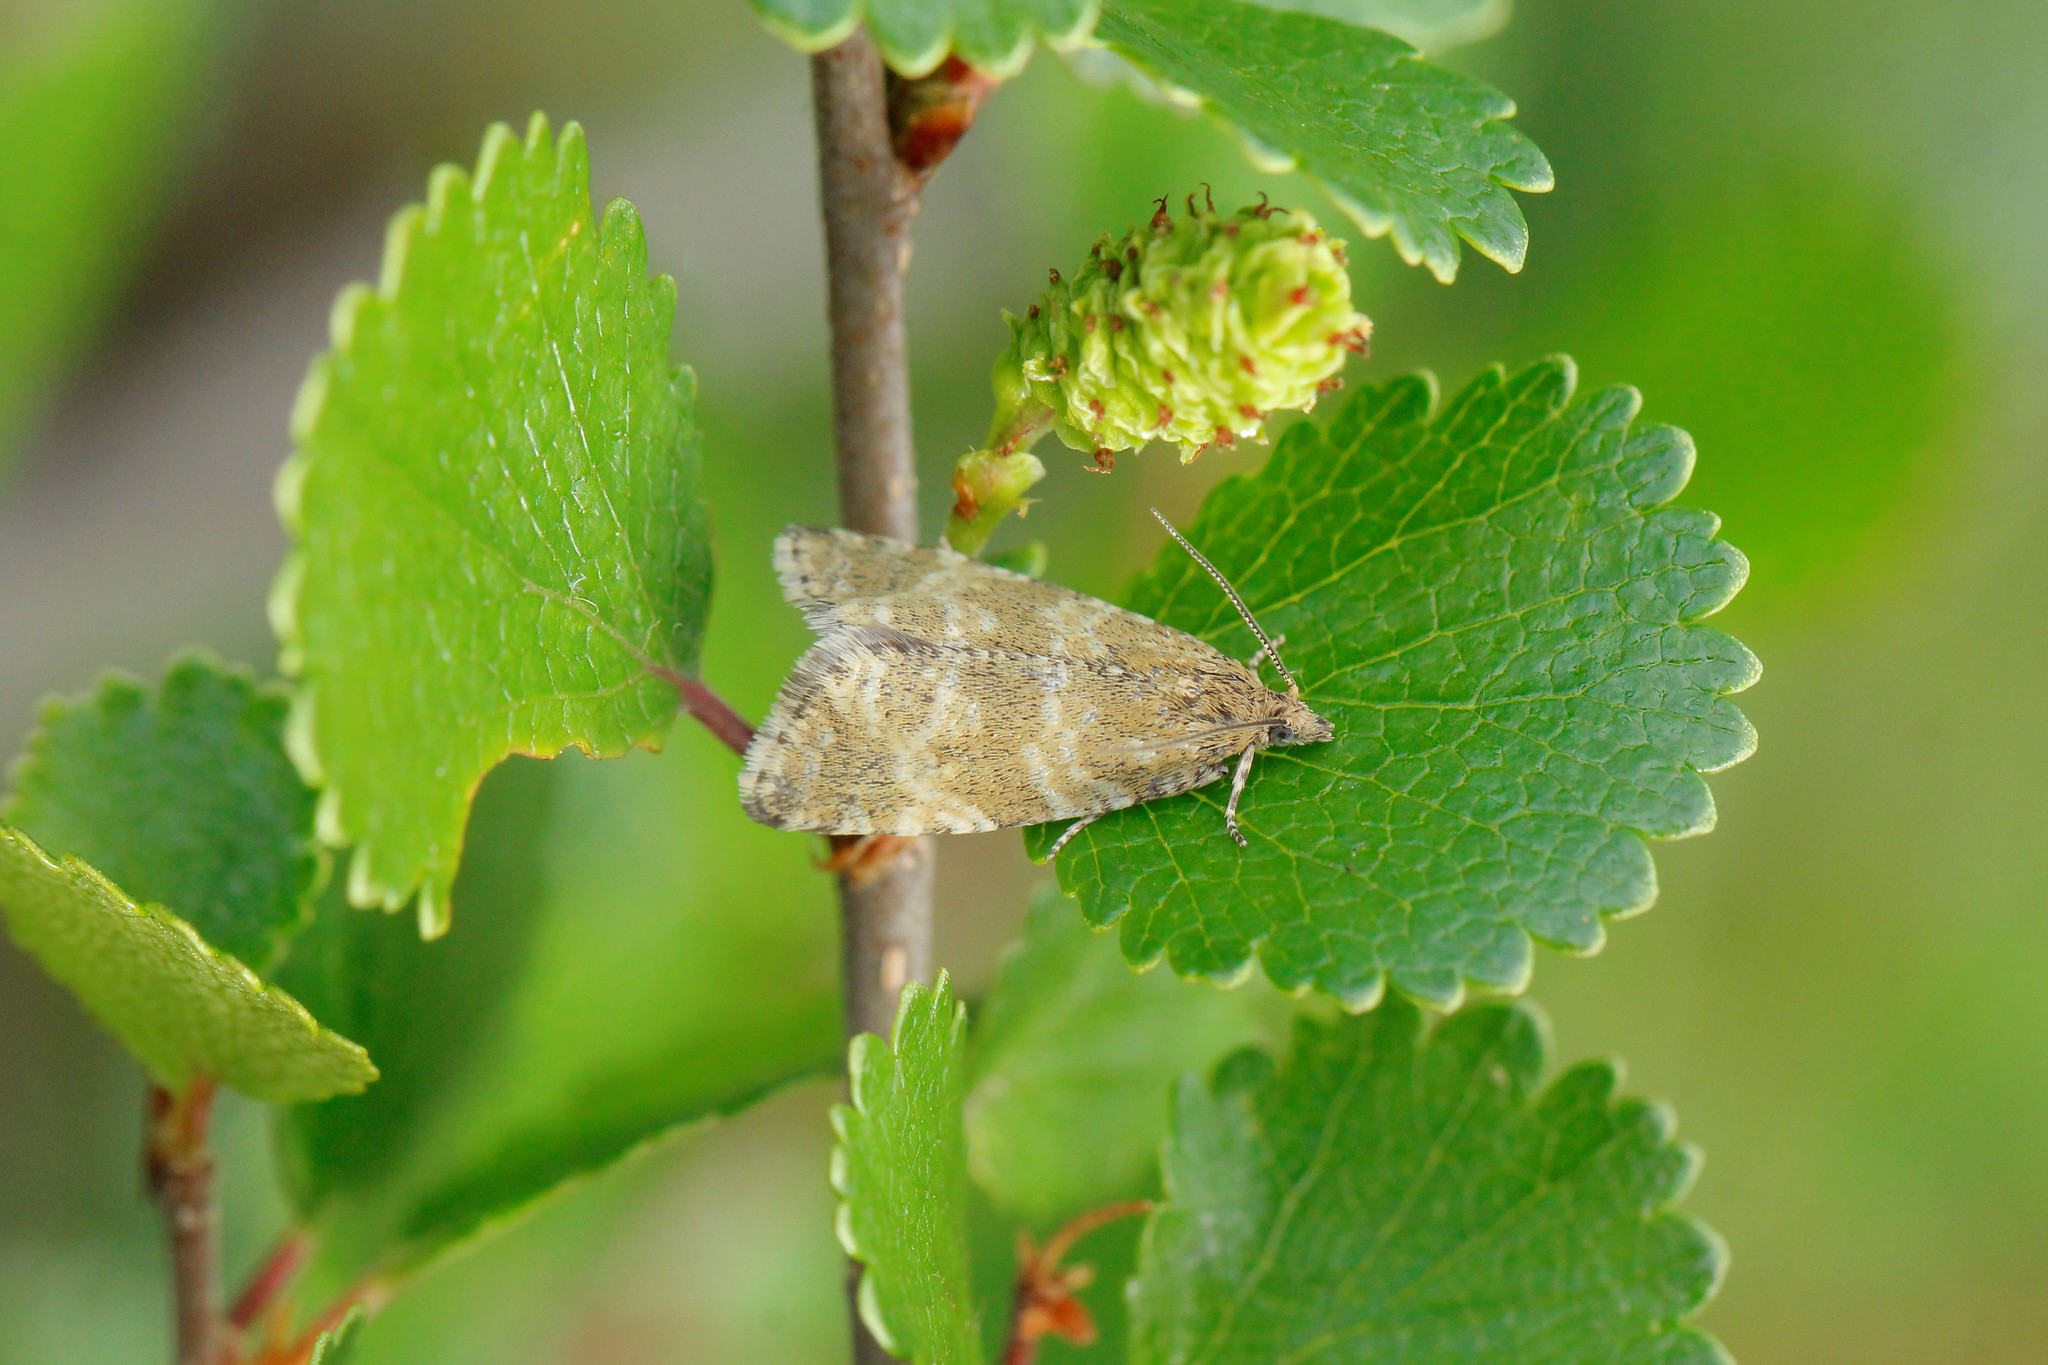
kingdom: Animalia
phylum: Arthropoda
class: Insecta
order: Lepidoptera
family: Tortricidae
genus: Olethreutes
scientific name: Olethreutes obsoletana
